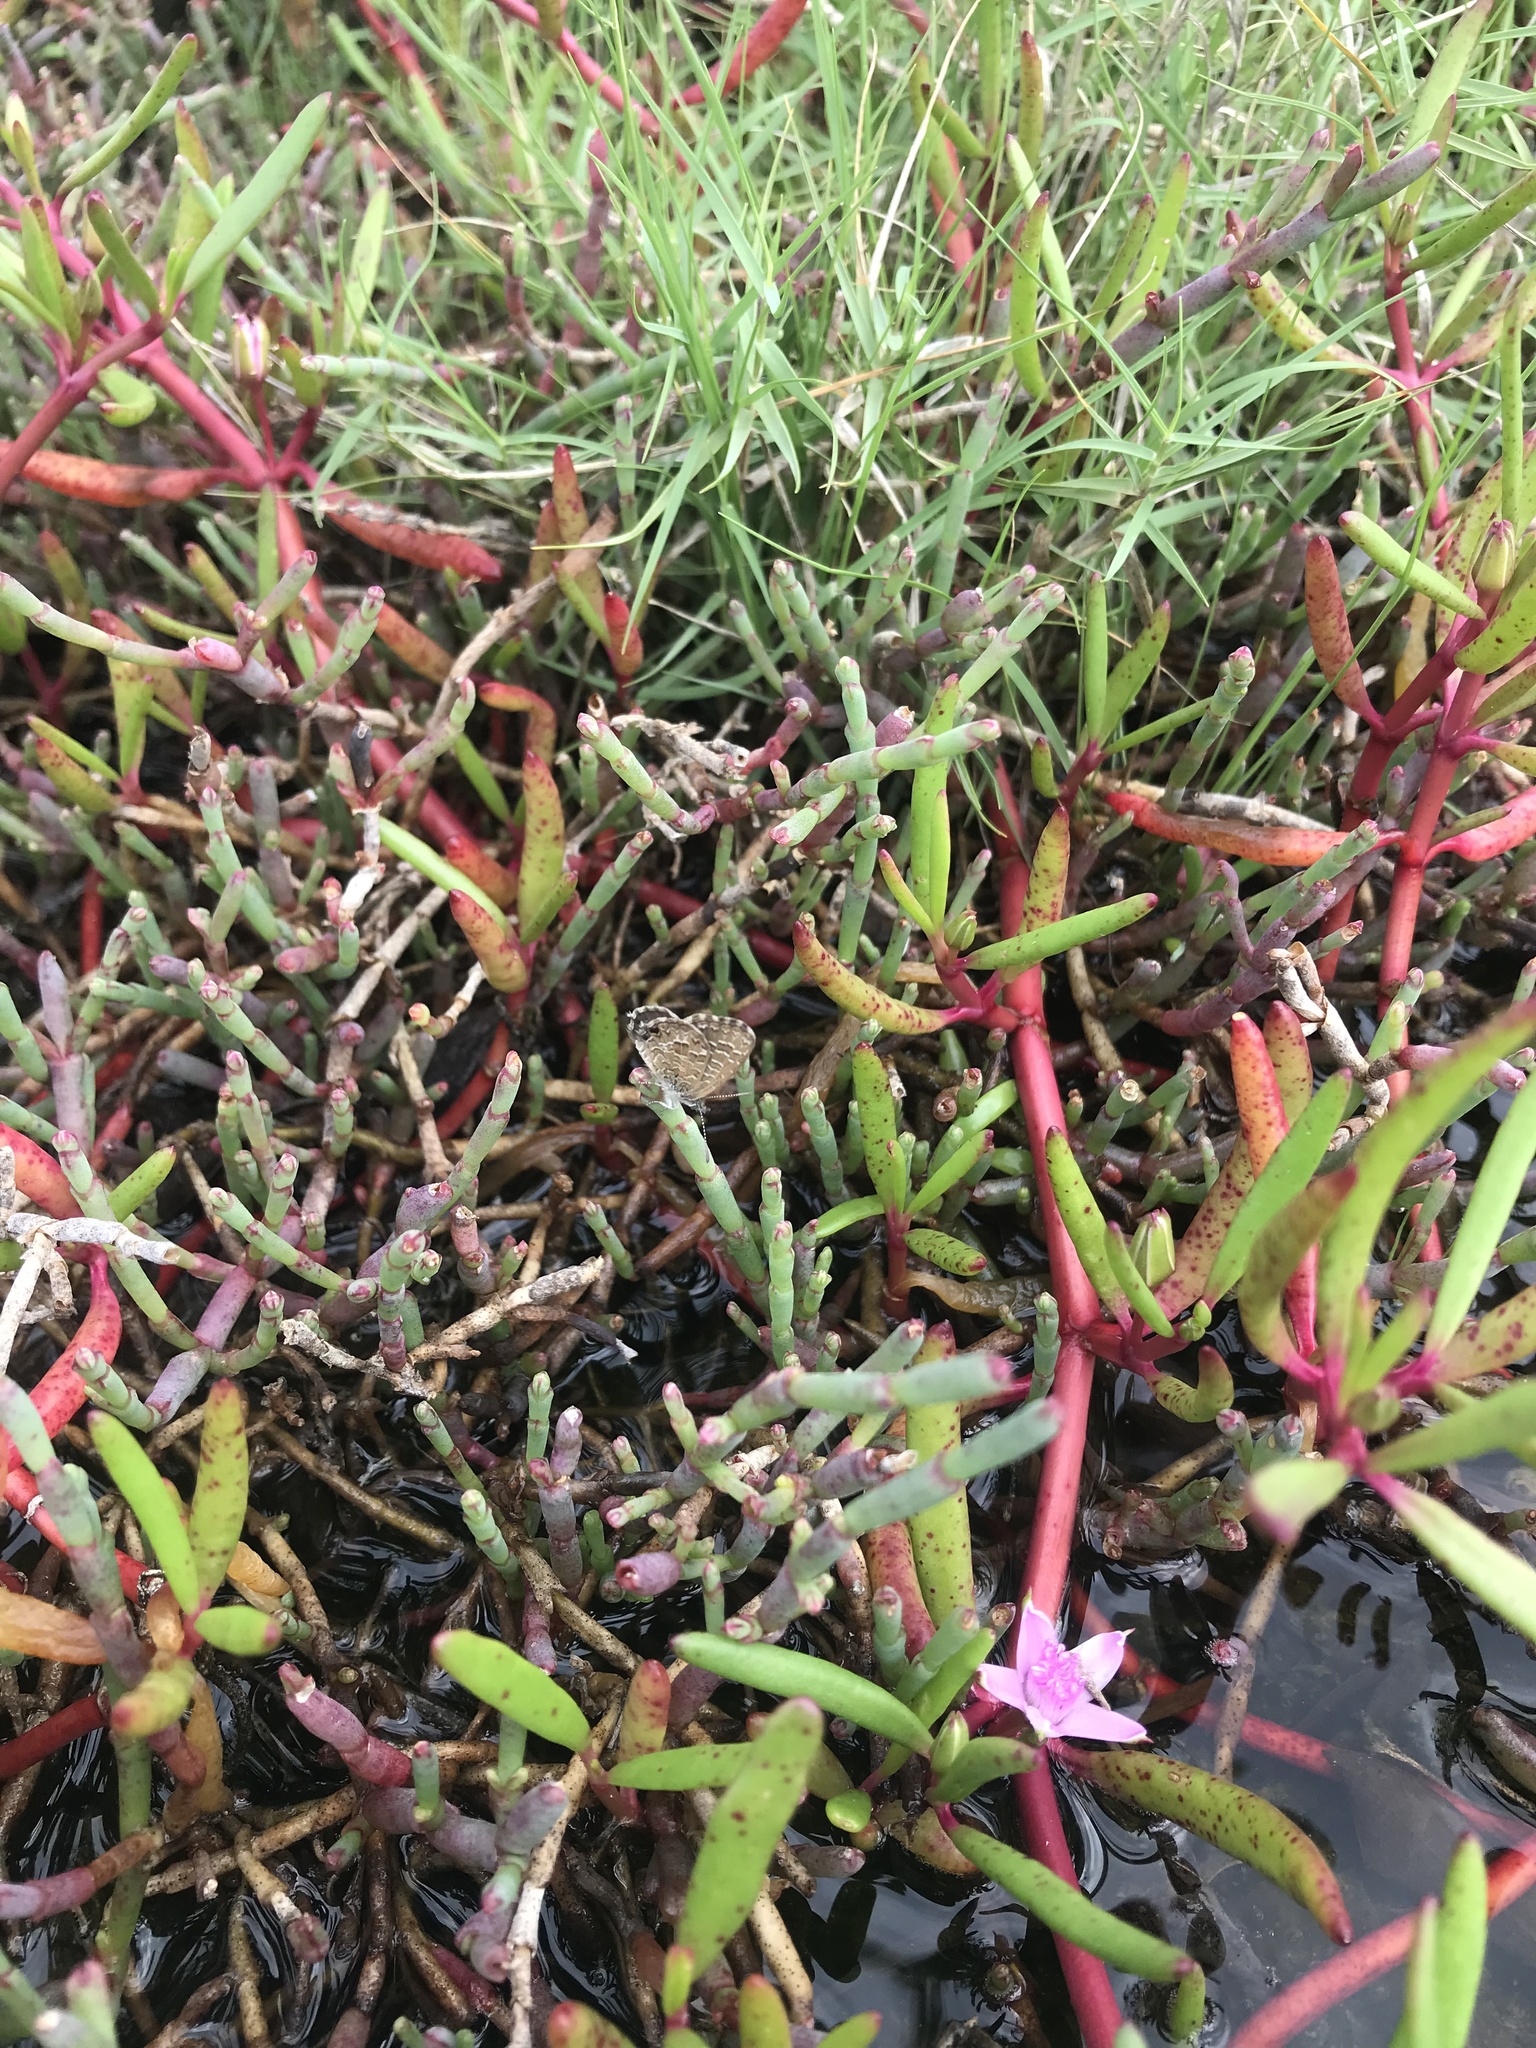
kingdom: Animalia
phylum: Arthropoda
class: Insecta
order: Lepidoptera
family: Lycaenidae
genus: Theclinesthes
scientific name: Theclinesthes sulpitius
